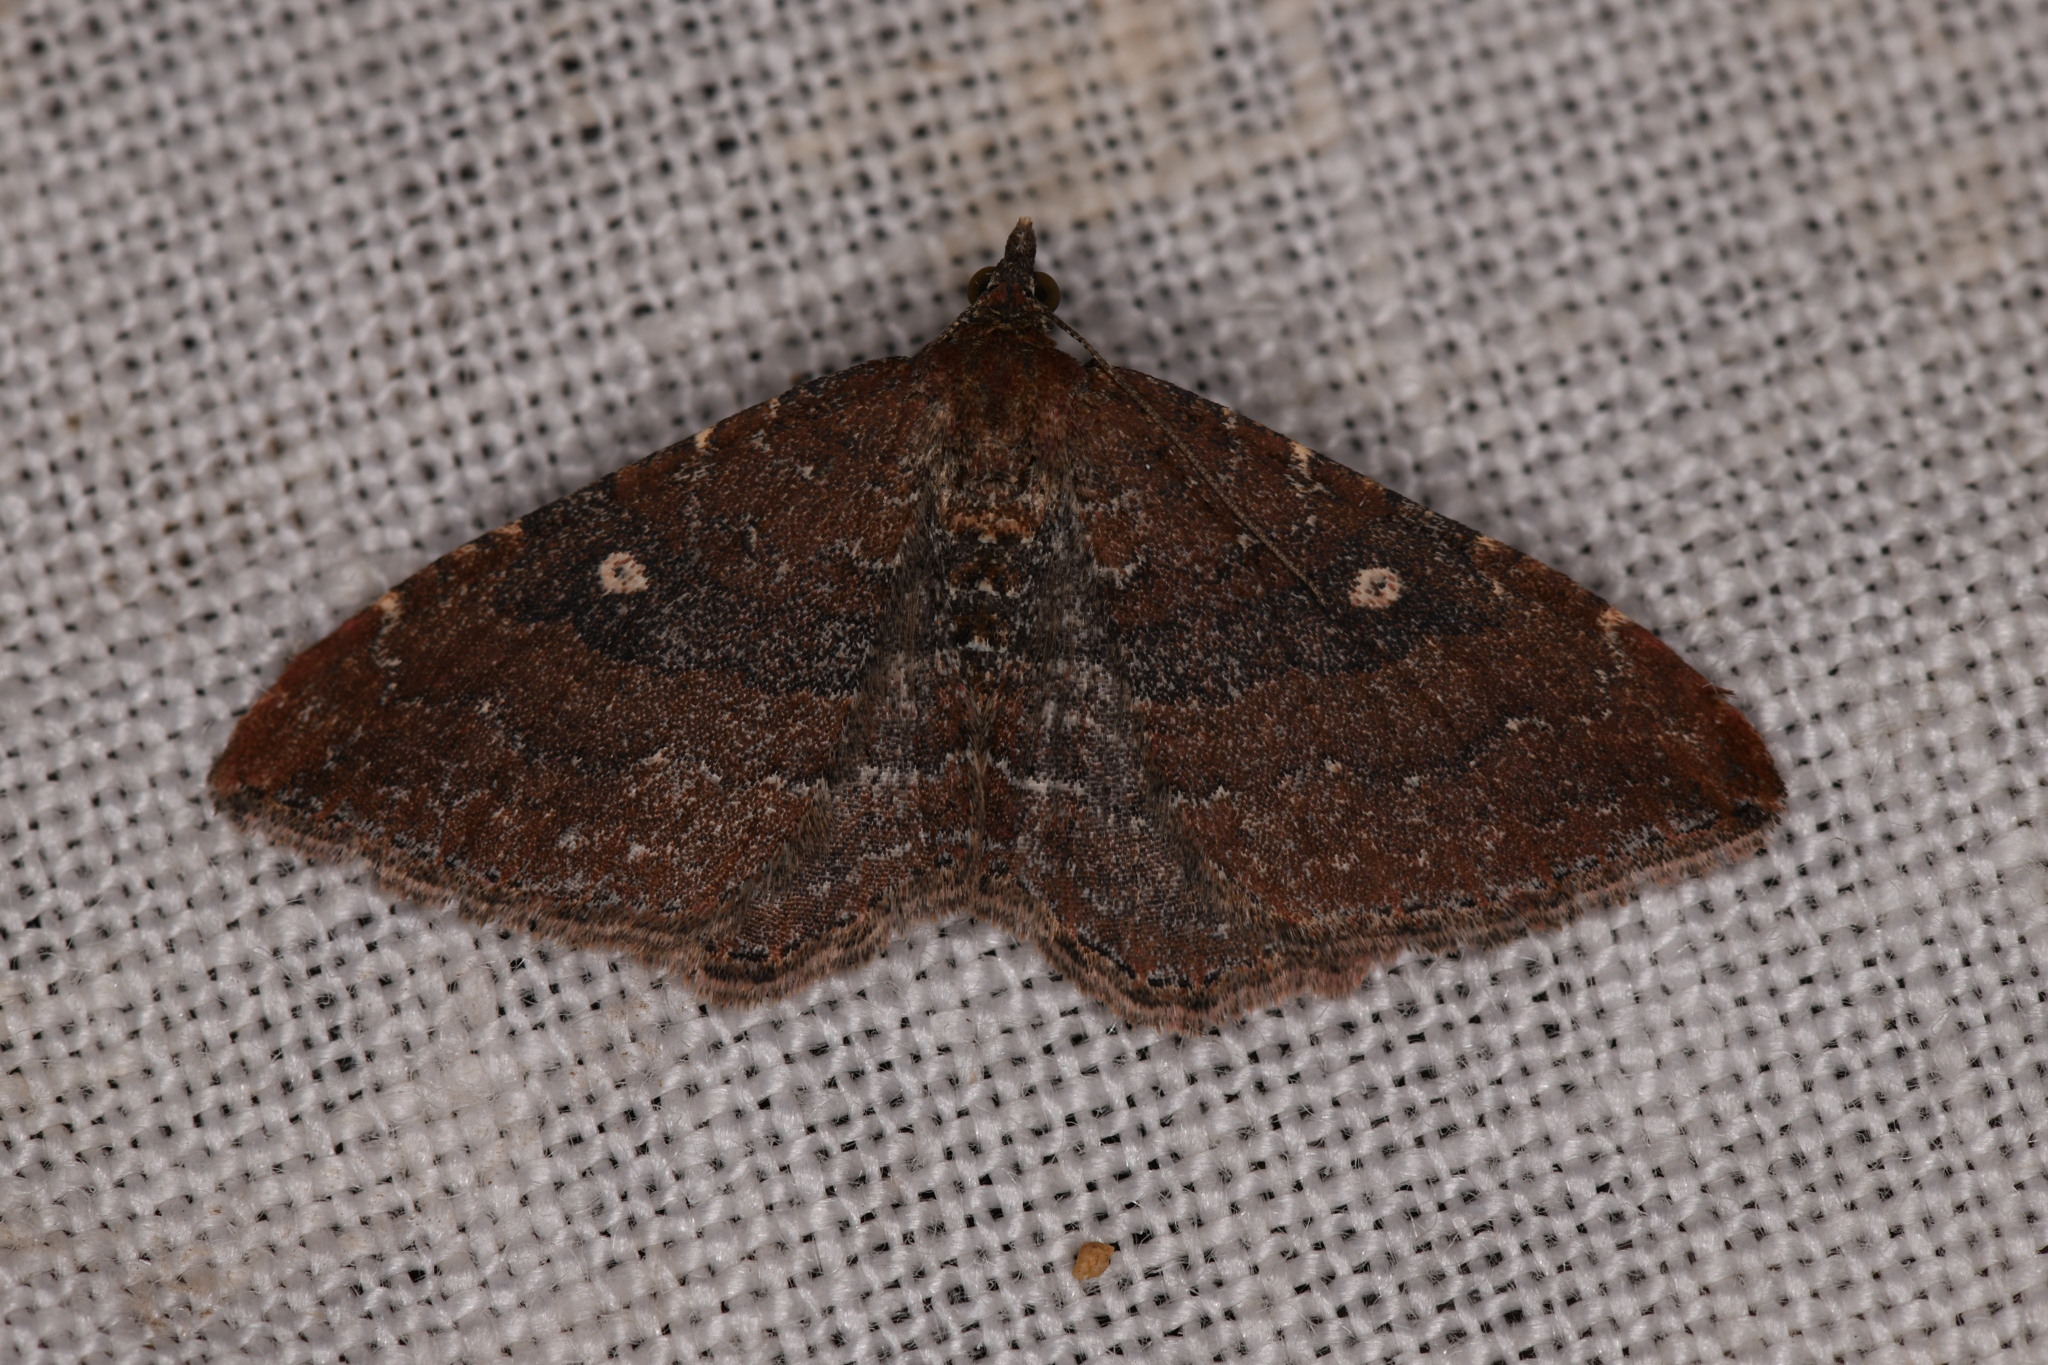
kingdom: Animalia
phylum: Arthropoda
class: Insecta
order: Lepidoptera
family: Geometridae
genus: Orthonama
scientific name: Orthonama obstipata
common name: The gem
